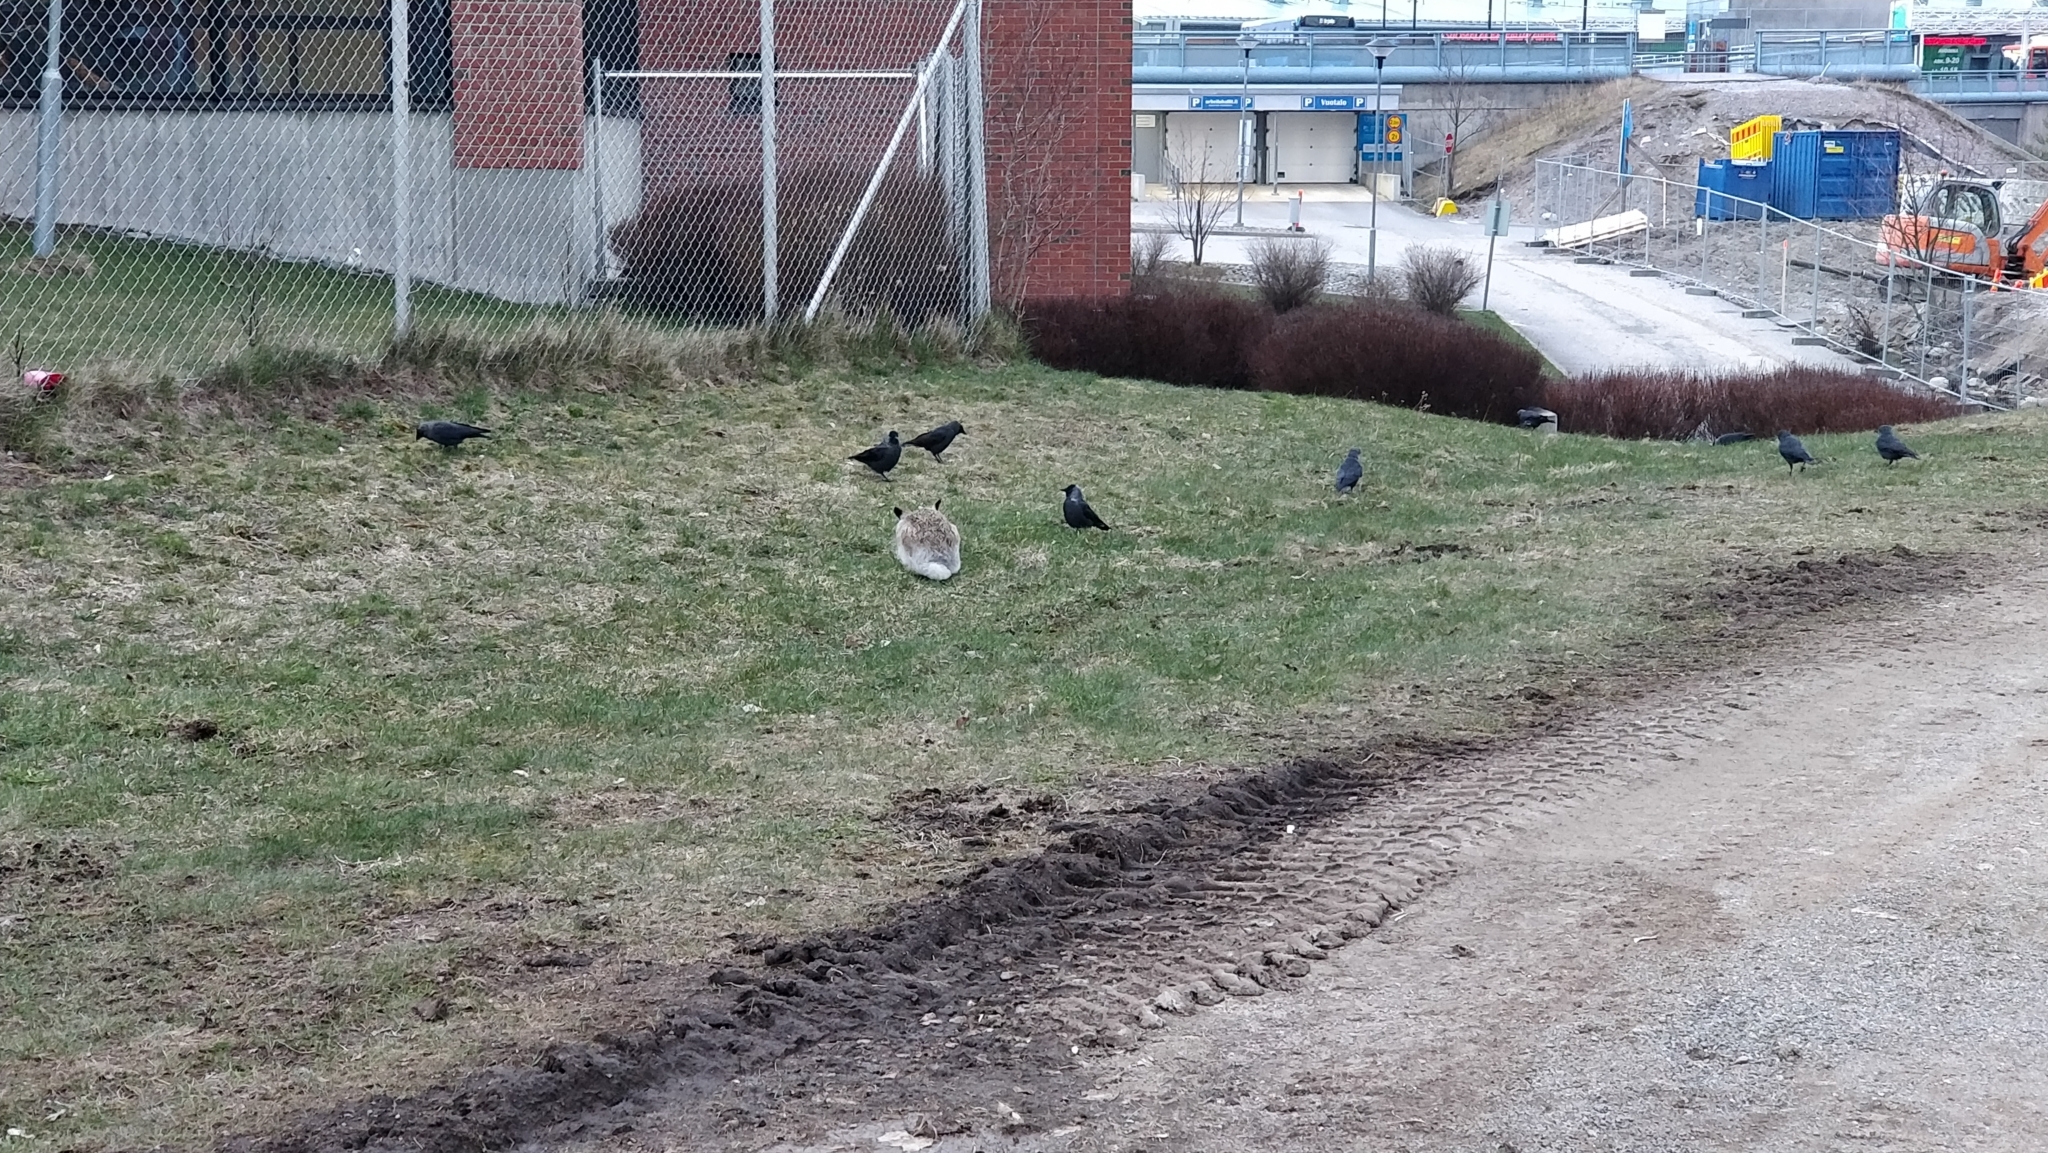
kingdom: Animalia
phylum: Chordata
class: Aves
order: Passeriformes
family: Corvidae
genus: Coloeus
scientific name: Coloeus monedula
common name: Western jackdaw
